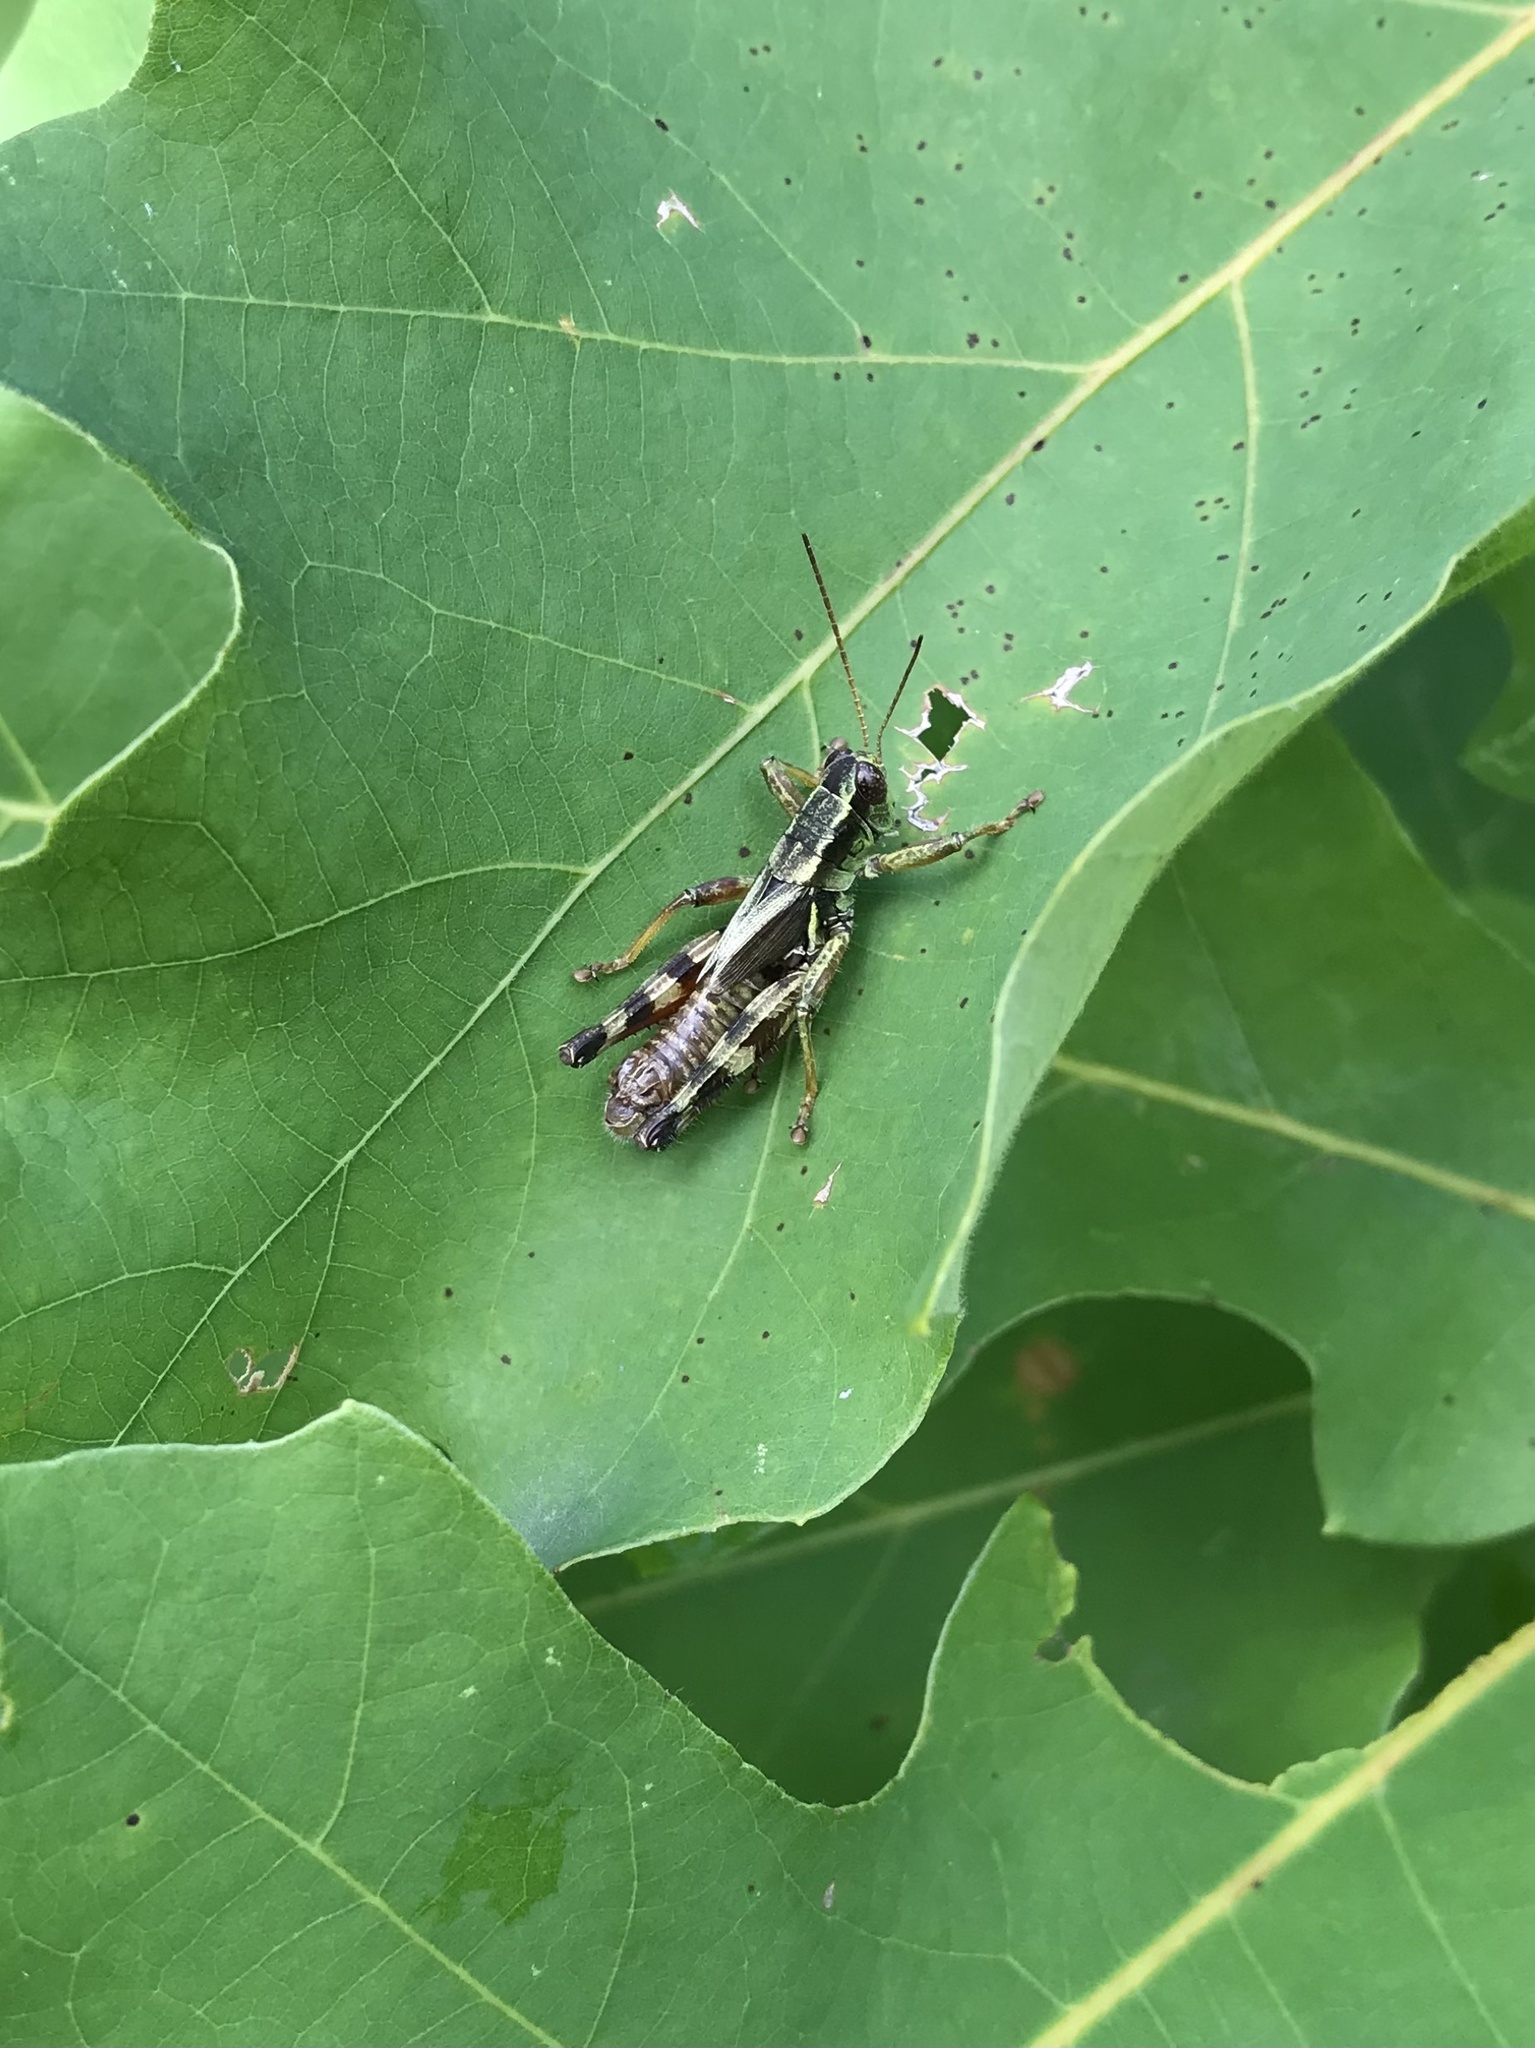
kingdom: Animalia
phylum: Arthropoda
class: Insecta
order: Orthoptera
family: Acrididae
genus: Melanoplus
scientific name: Melanoplus walshii
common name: Walsh's locust
